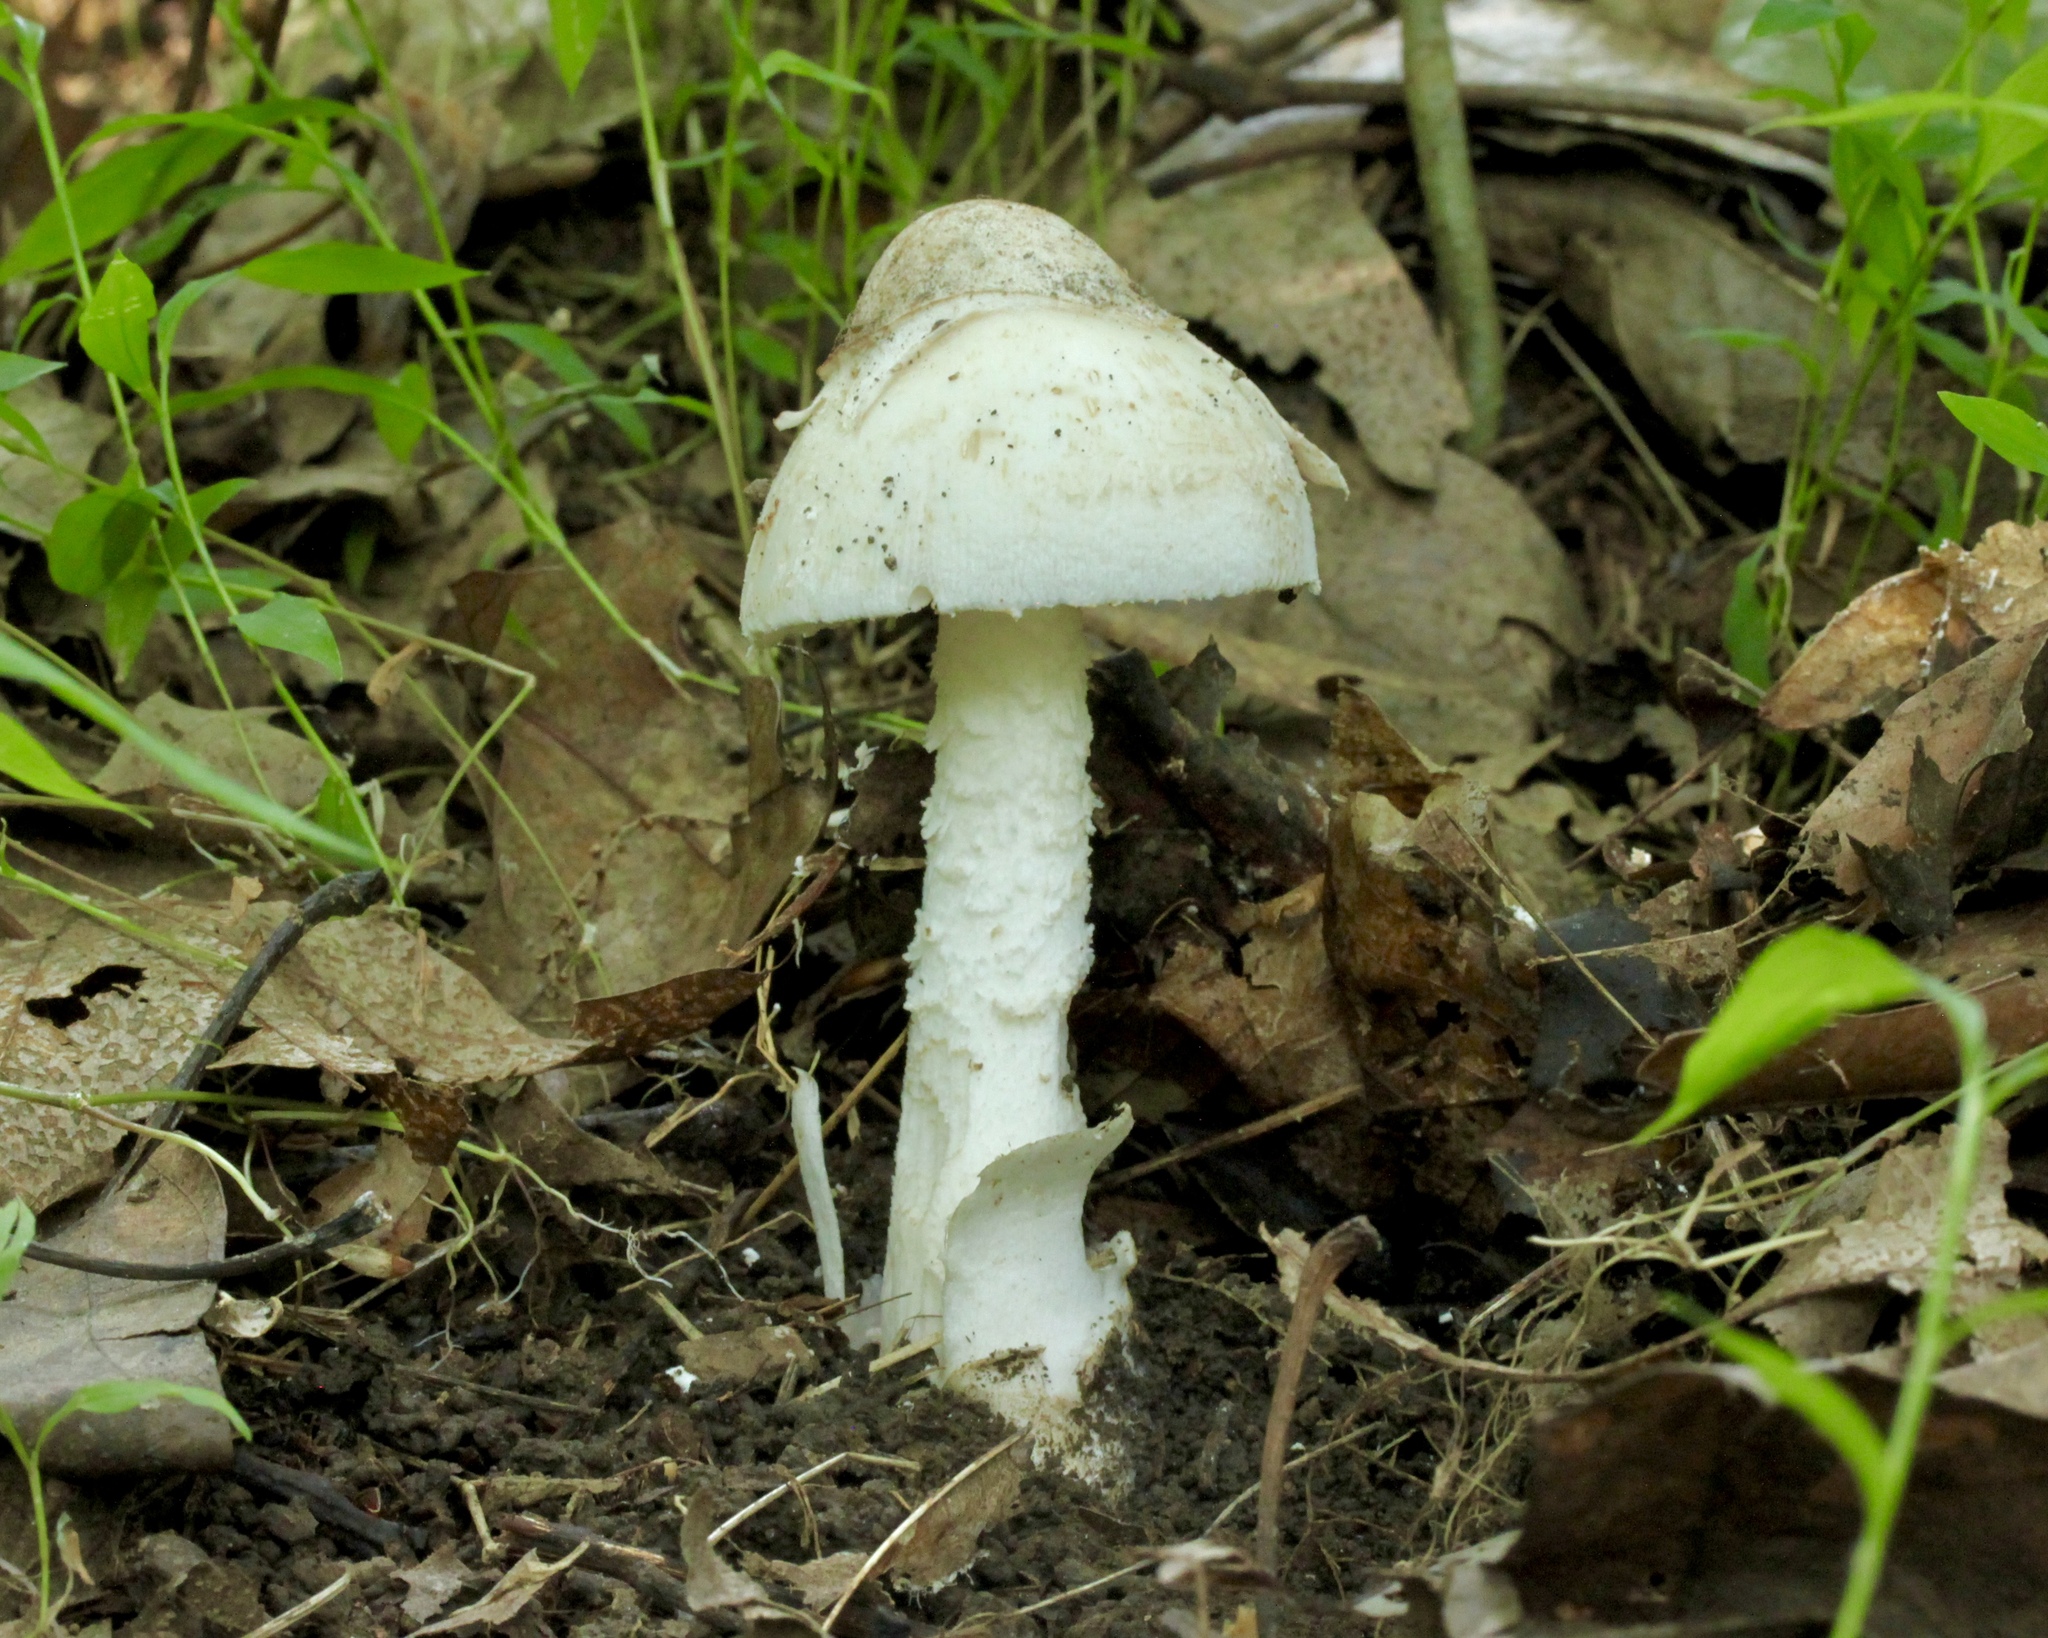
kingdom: Fungi
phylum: Basidiomycota
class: Agaricomycetes
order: Agaricales
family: Amanitaceae
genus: Amanita
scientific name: Amanita volvata
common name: American amidella
